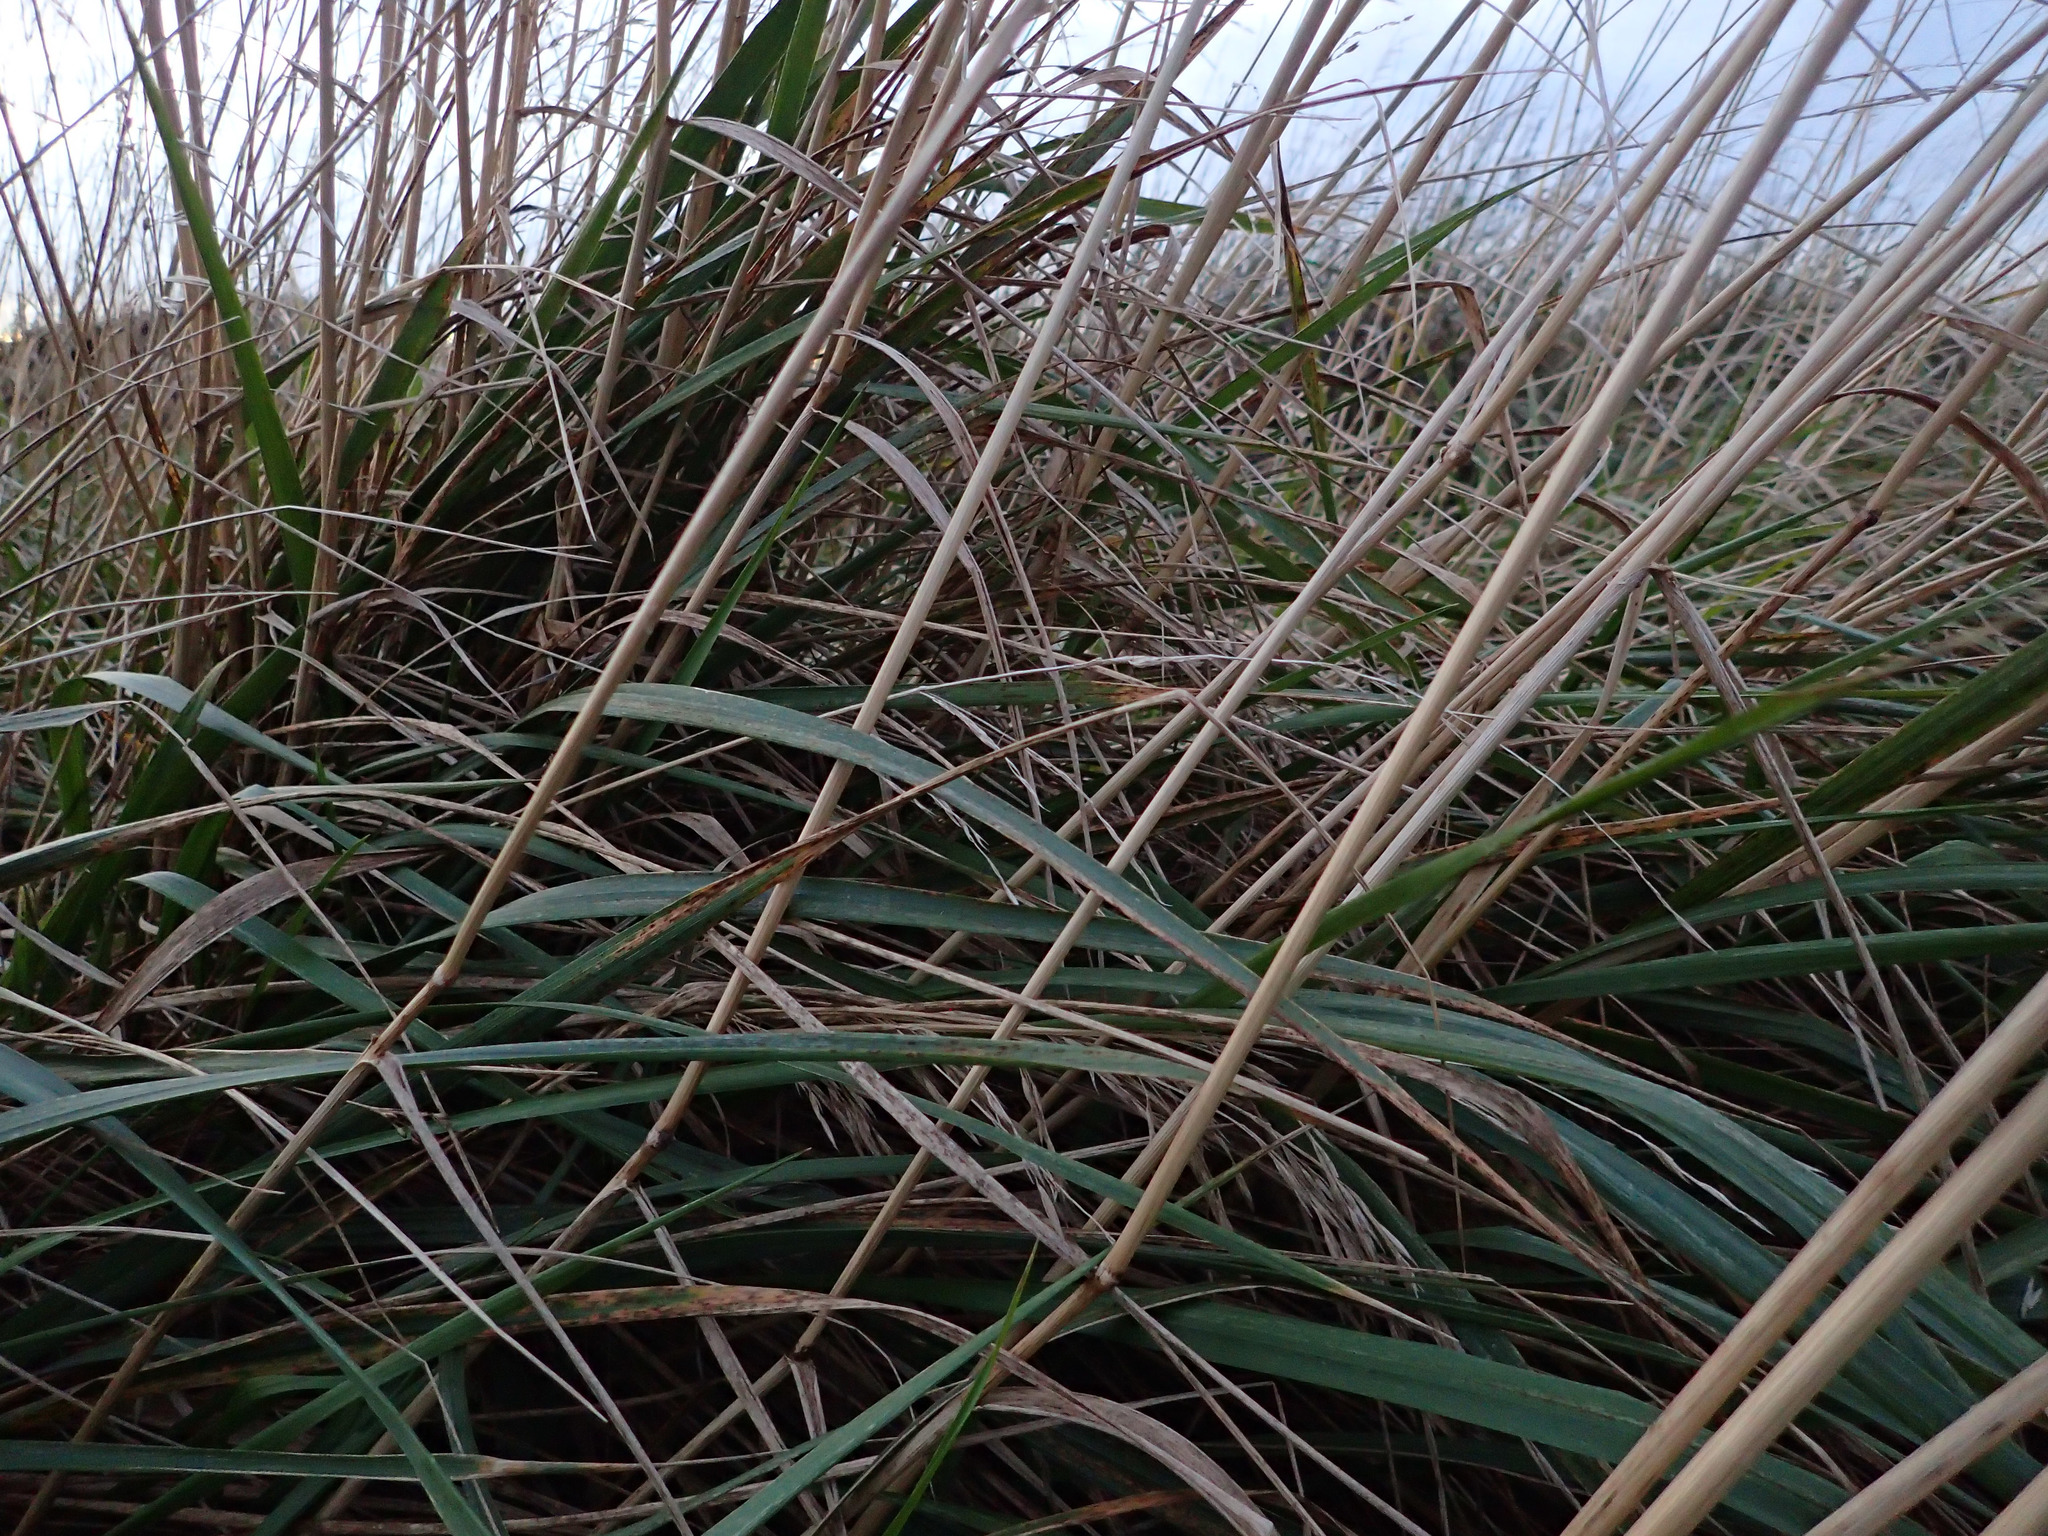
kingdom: Plantae
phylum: Tracheophyta
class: Liliopsida
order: Poales
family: Poaceae
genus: Lolium
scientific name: Lolium arundinaceum
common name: Reed fescue
